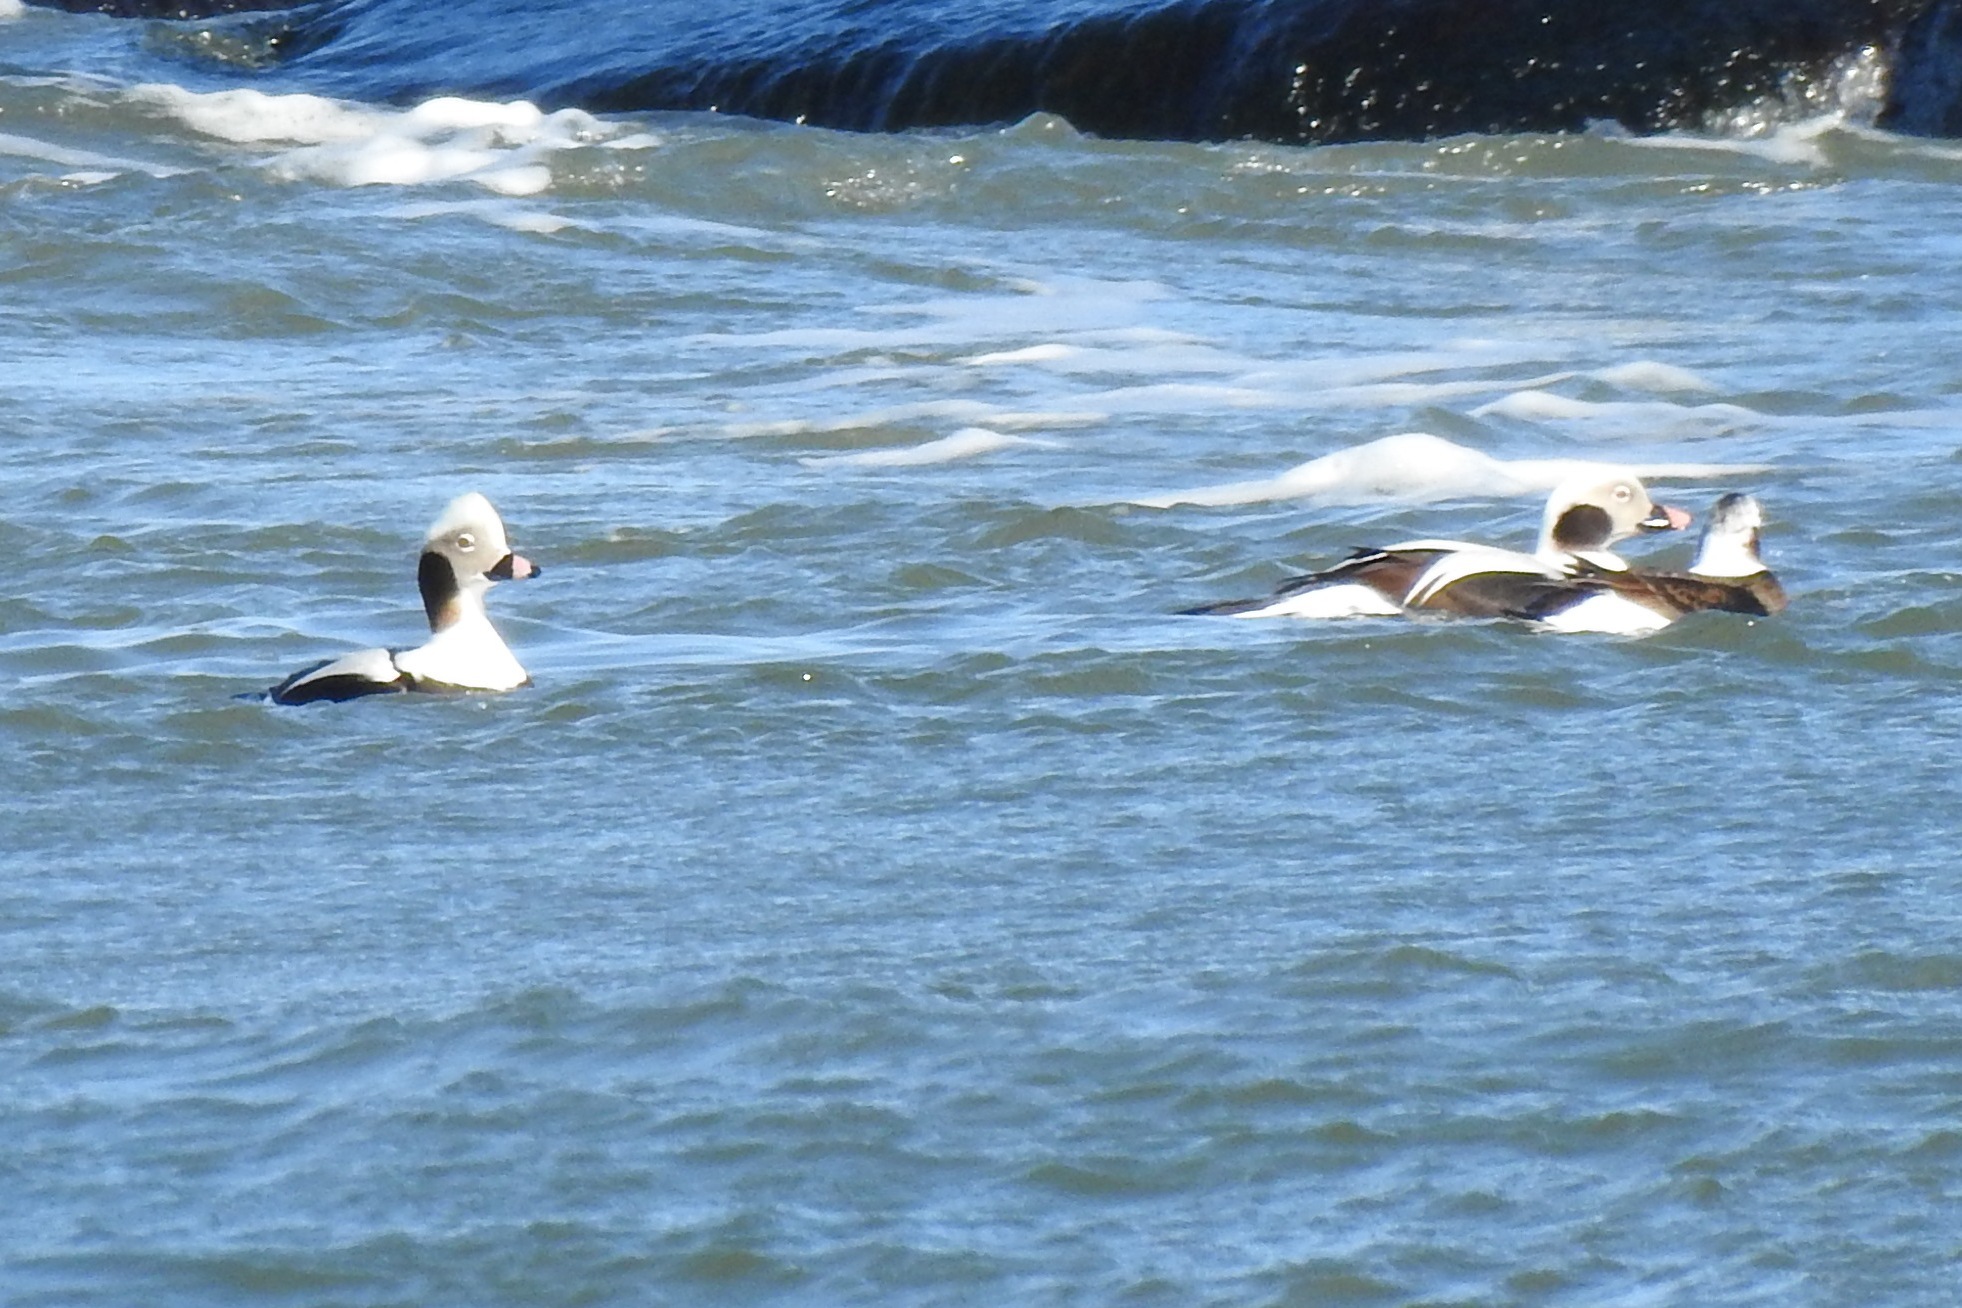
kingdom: Animalia
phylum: Chordata
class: Aves
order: Anseriformes
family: Anatidae
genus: Clangula
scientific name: Clangula hyemalis
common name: Long-tailed duck
